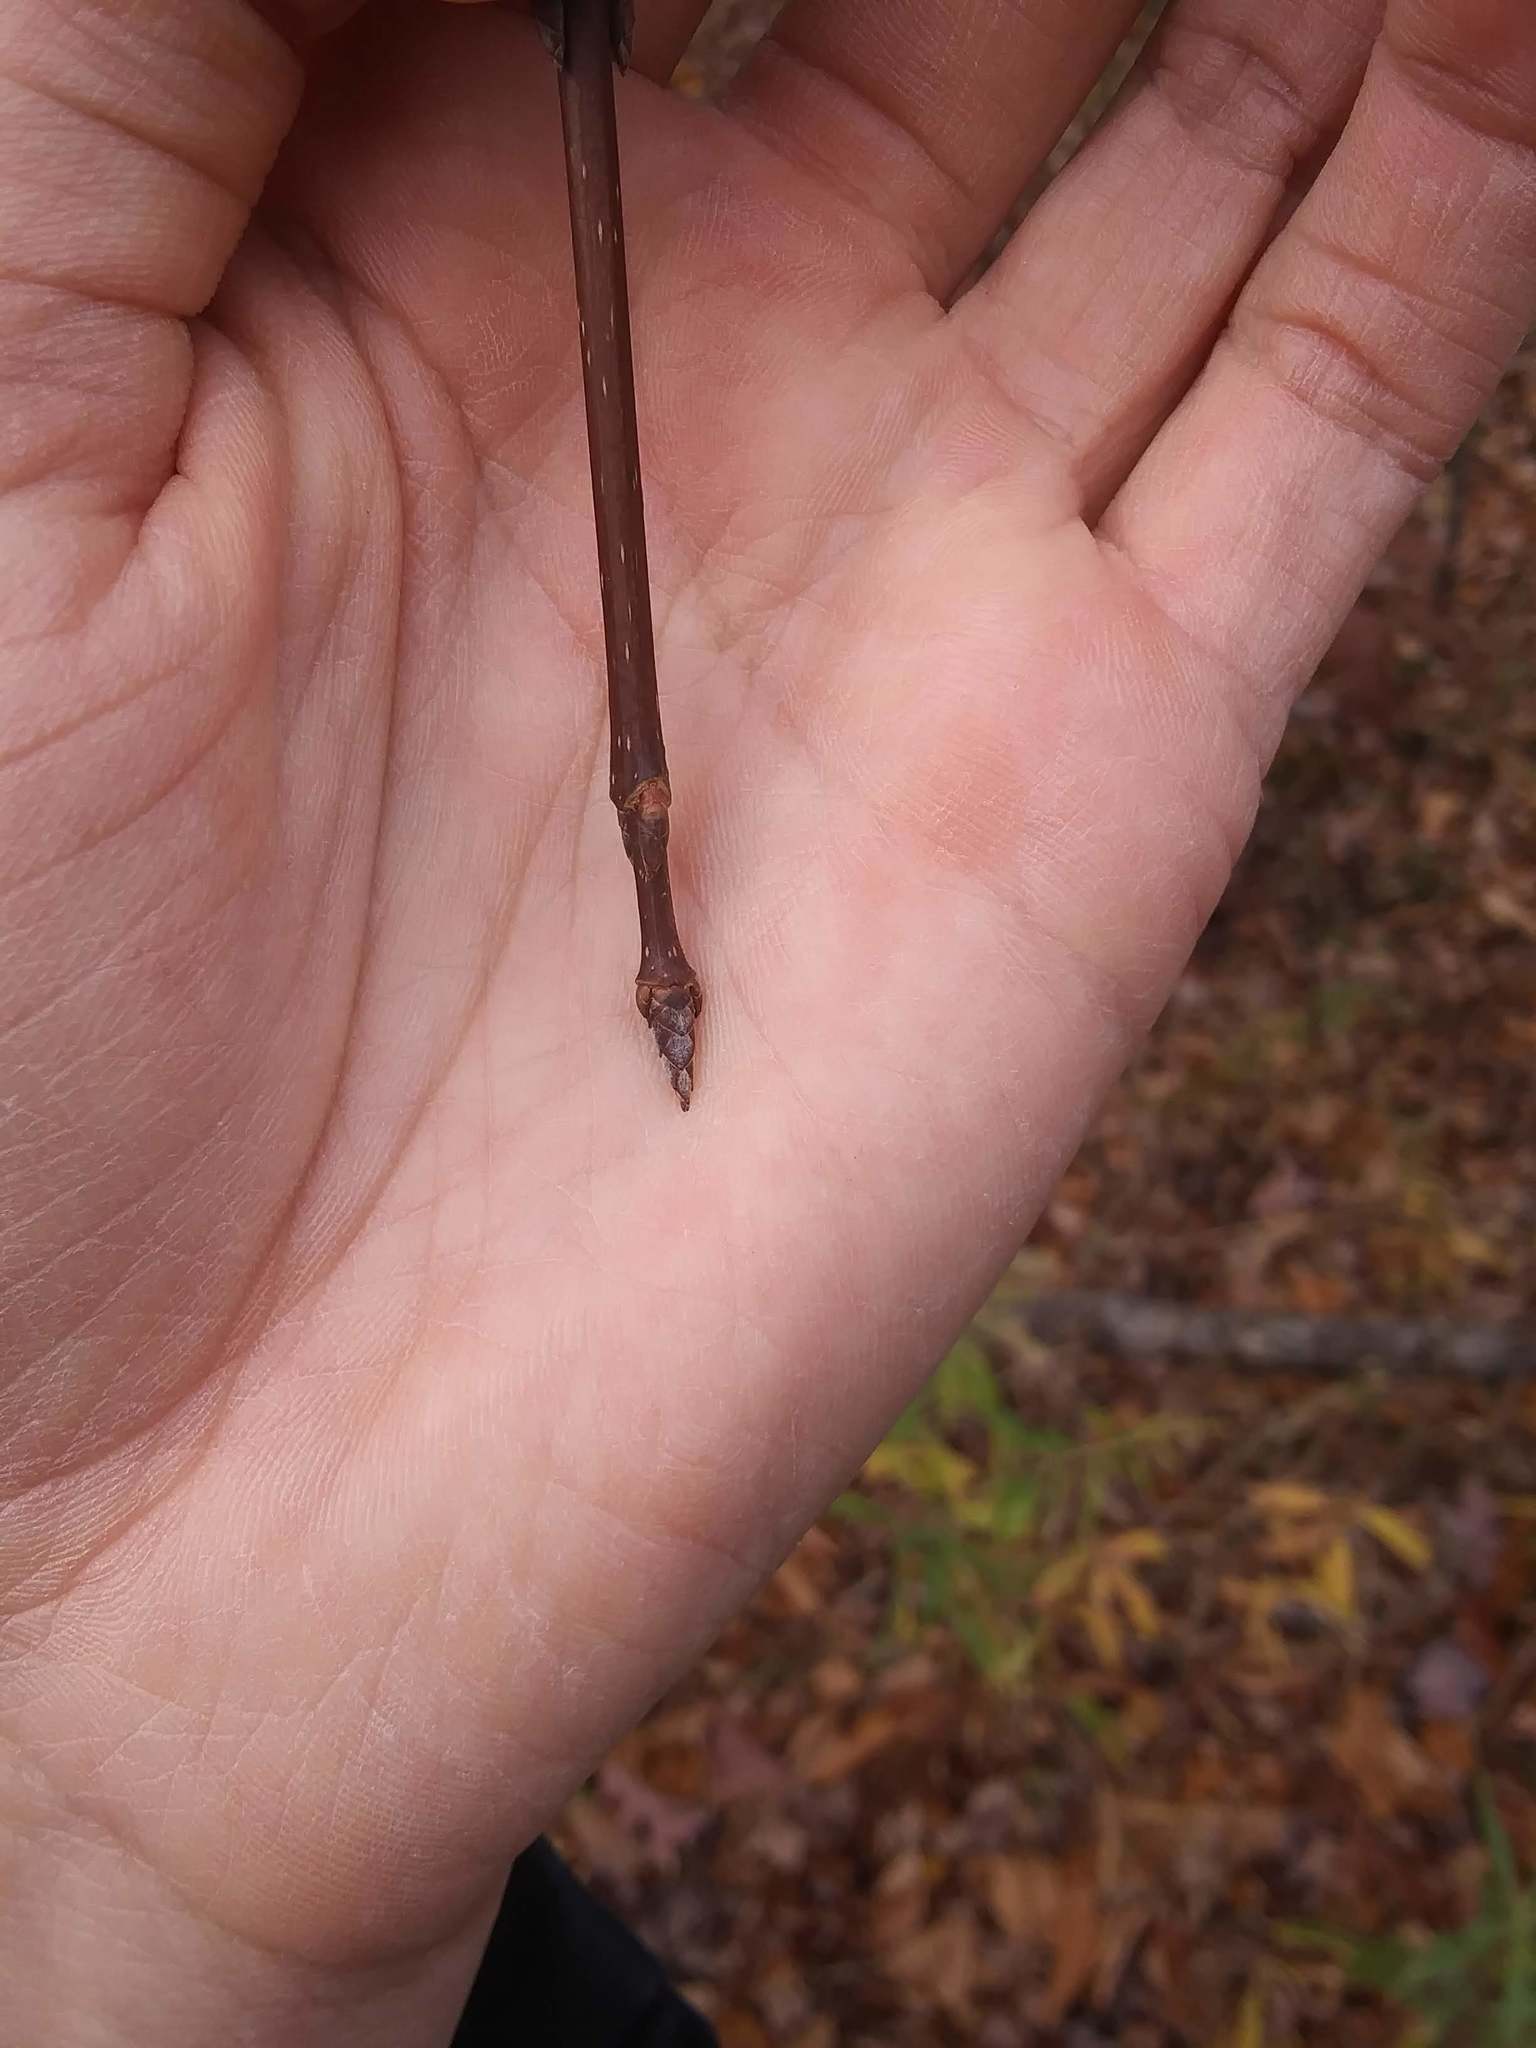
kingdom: Plantae
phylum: Tracheophyta
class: Magnoliopsida
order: Sapindales
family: Sapindaceae
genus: Acer
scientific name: Acer saccharum
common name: Sugar maple
